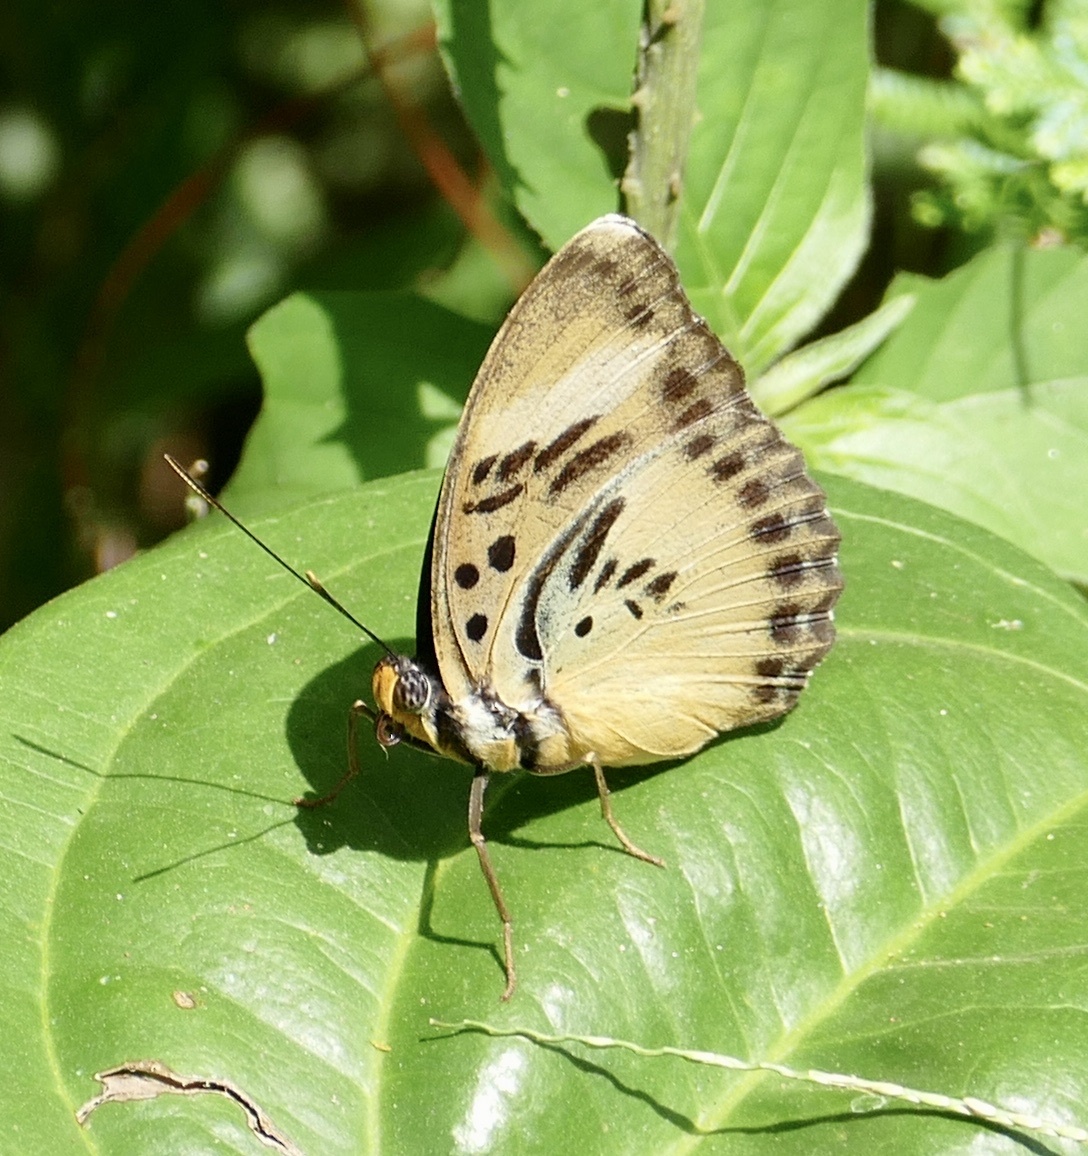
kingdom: Animalia
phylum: Arthropoda
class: Insecta
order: Lepidoptera
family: Nymphalidae
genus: Euphaedra
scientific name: Euphaedra ceres
